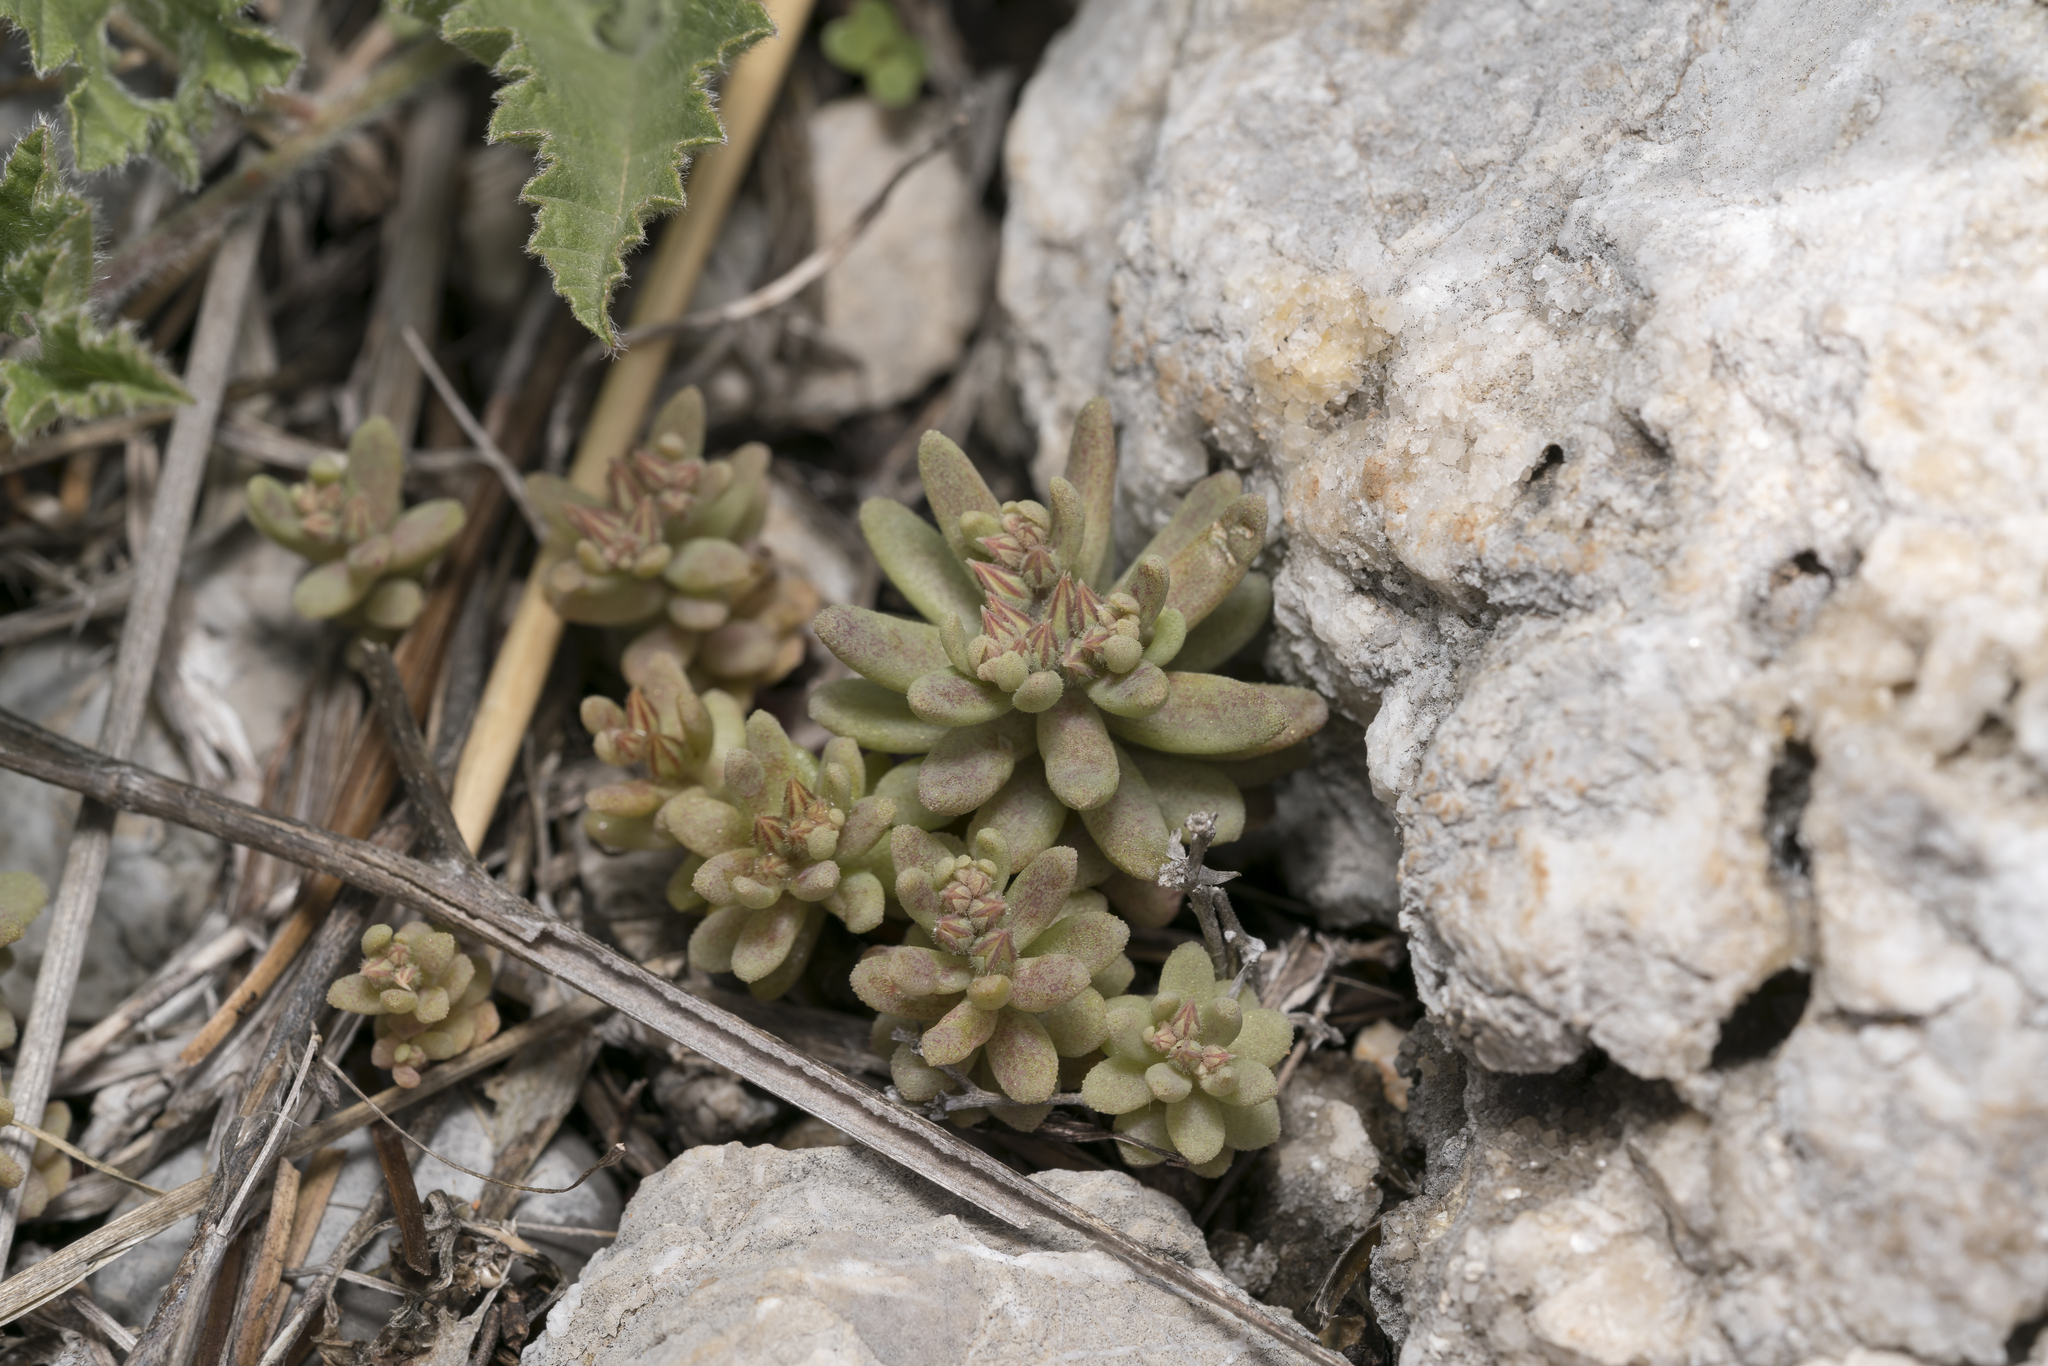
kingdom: Plantae
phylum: Tracheophyta
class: Magnoliopsida
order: Saxifragales
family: Crassulaceae
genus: Sedum
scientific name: Sedum rubens
